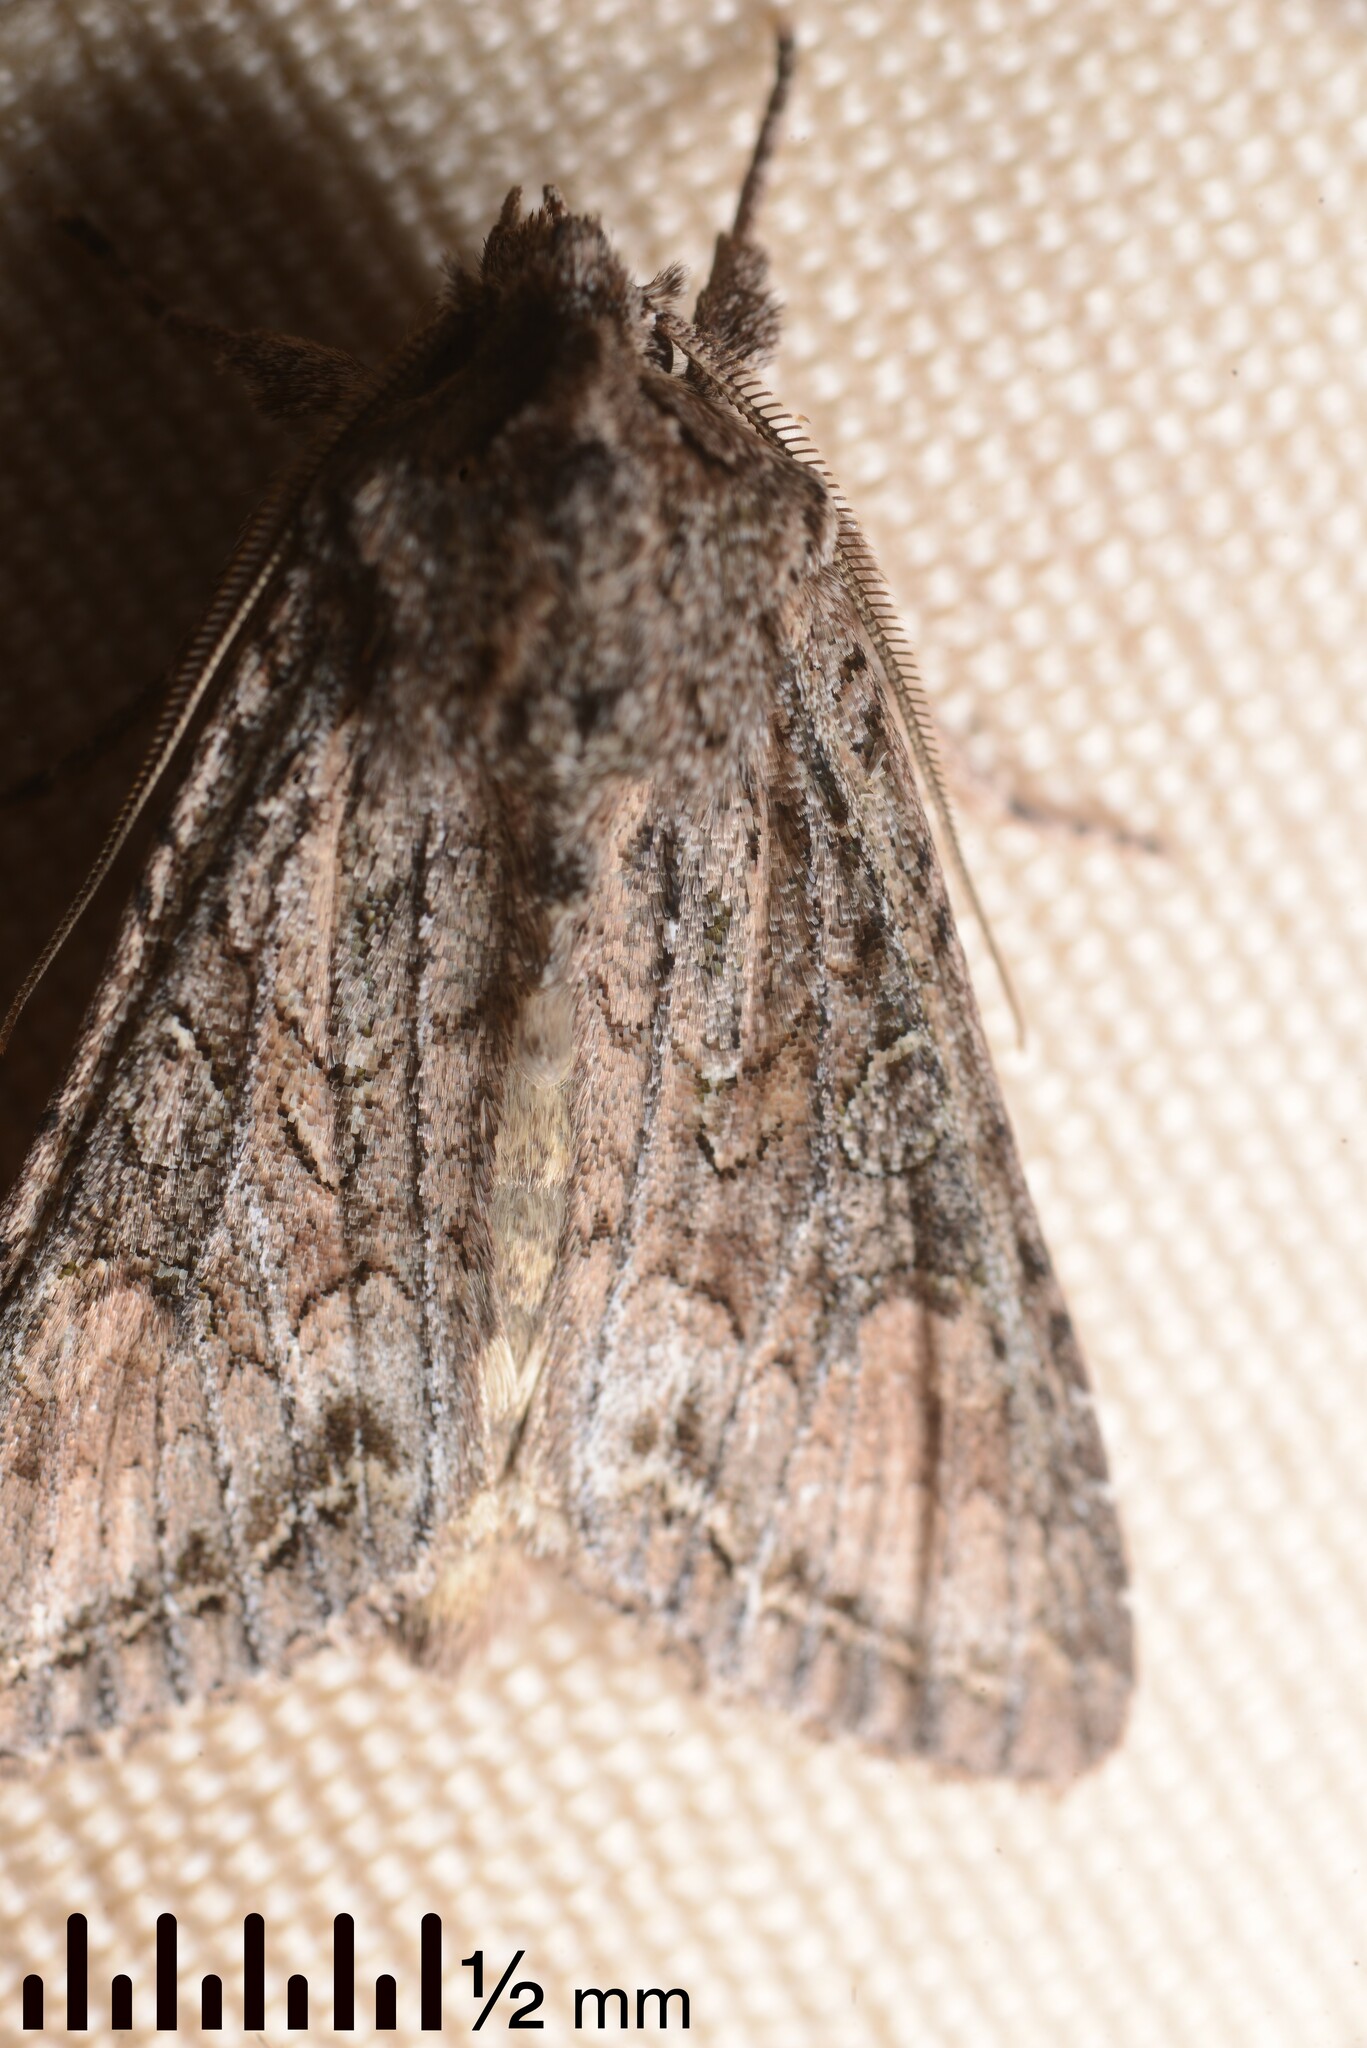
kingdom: Animalia
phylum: Arthropoda
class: Insecta
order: Lepidoptera
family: Noctuidae
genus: Ichneutica
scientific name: Ichneutica mutans
